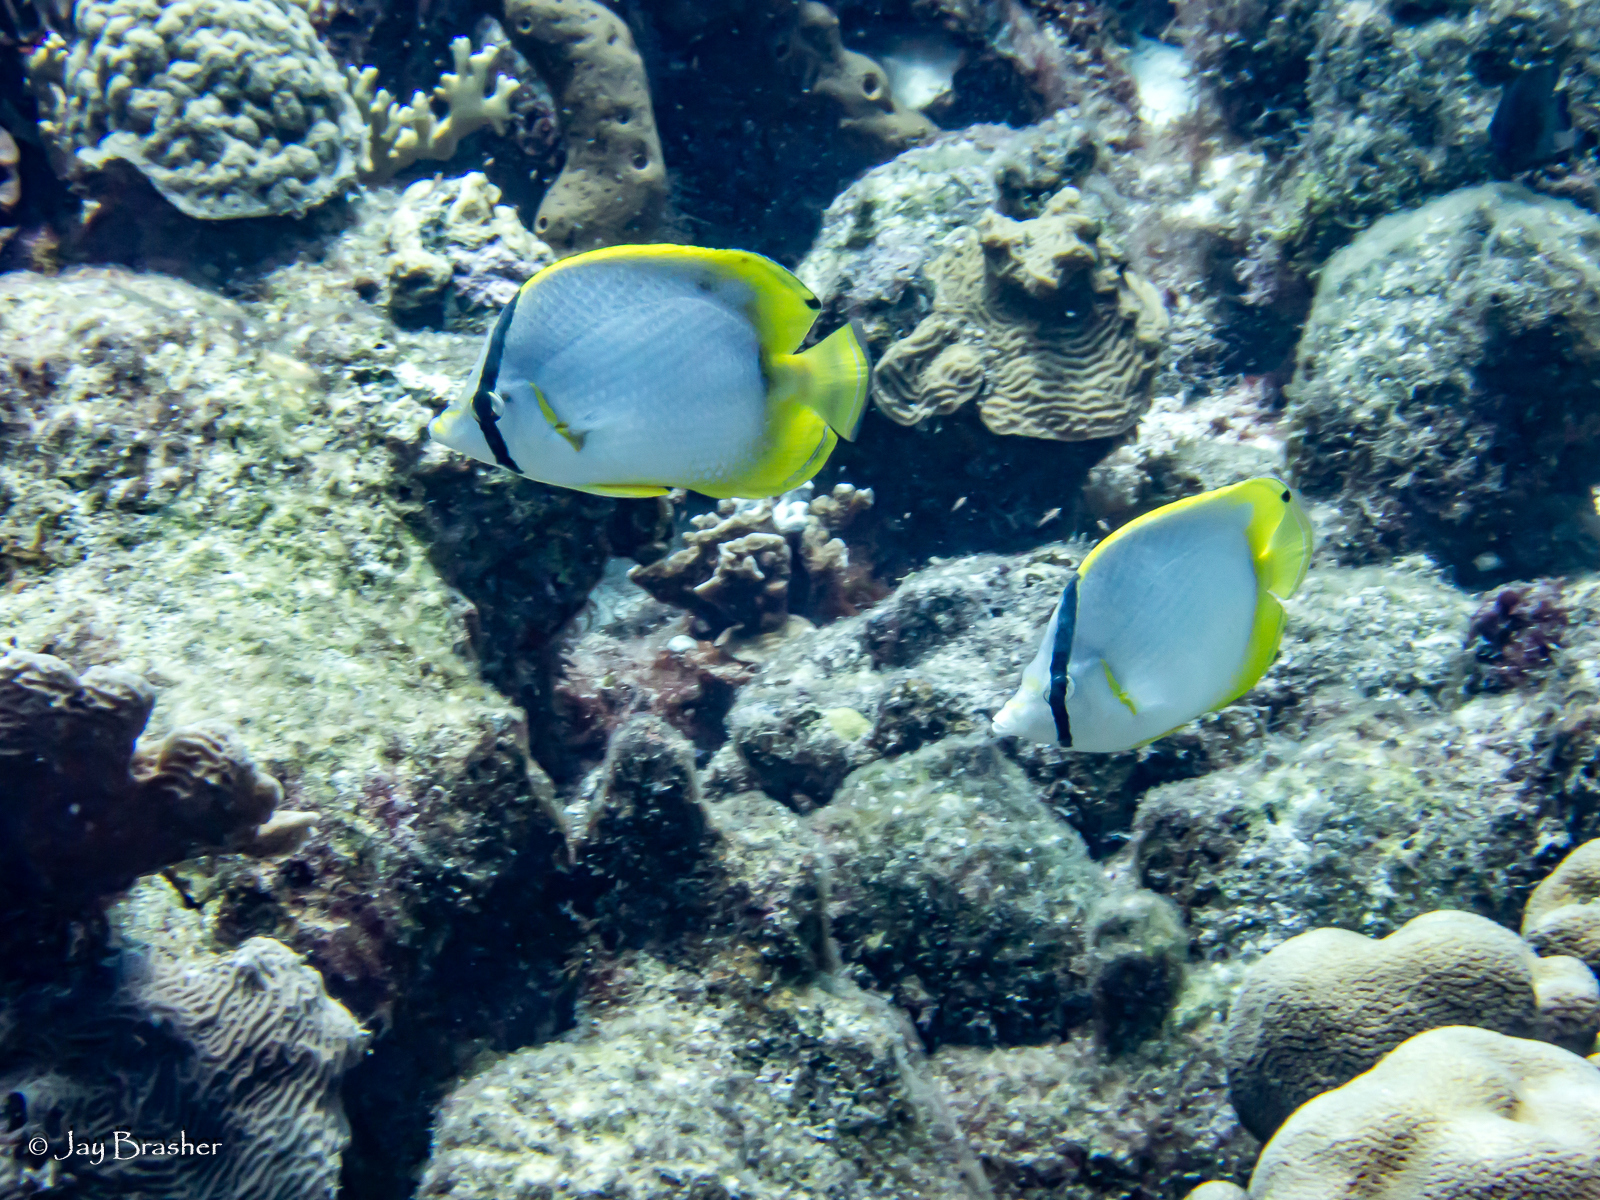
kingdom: Animalia
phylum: Chordata
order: Perciformes
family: Chaetodontidae
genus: Chaetodon
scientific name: Chaetodon ocellatus
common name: Spotfin butterflyfish
